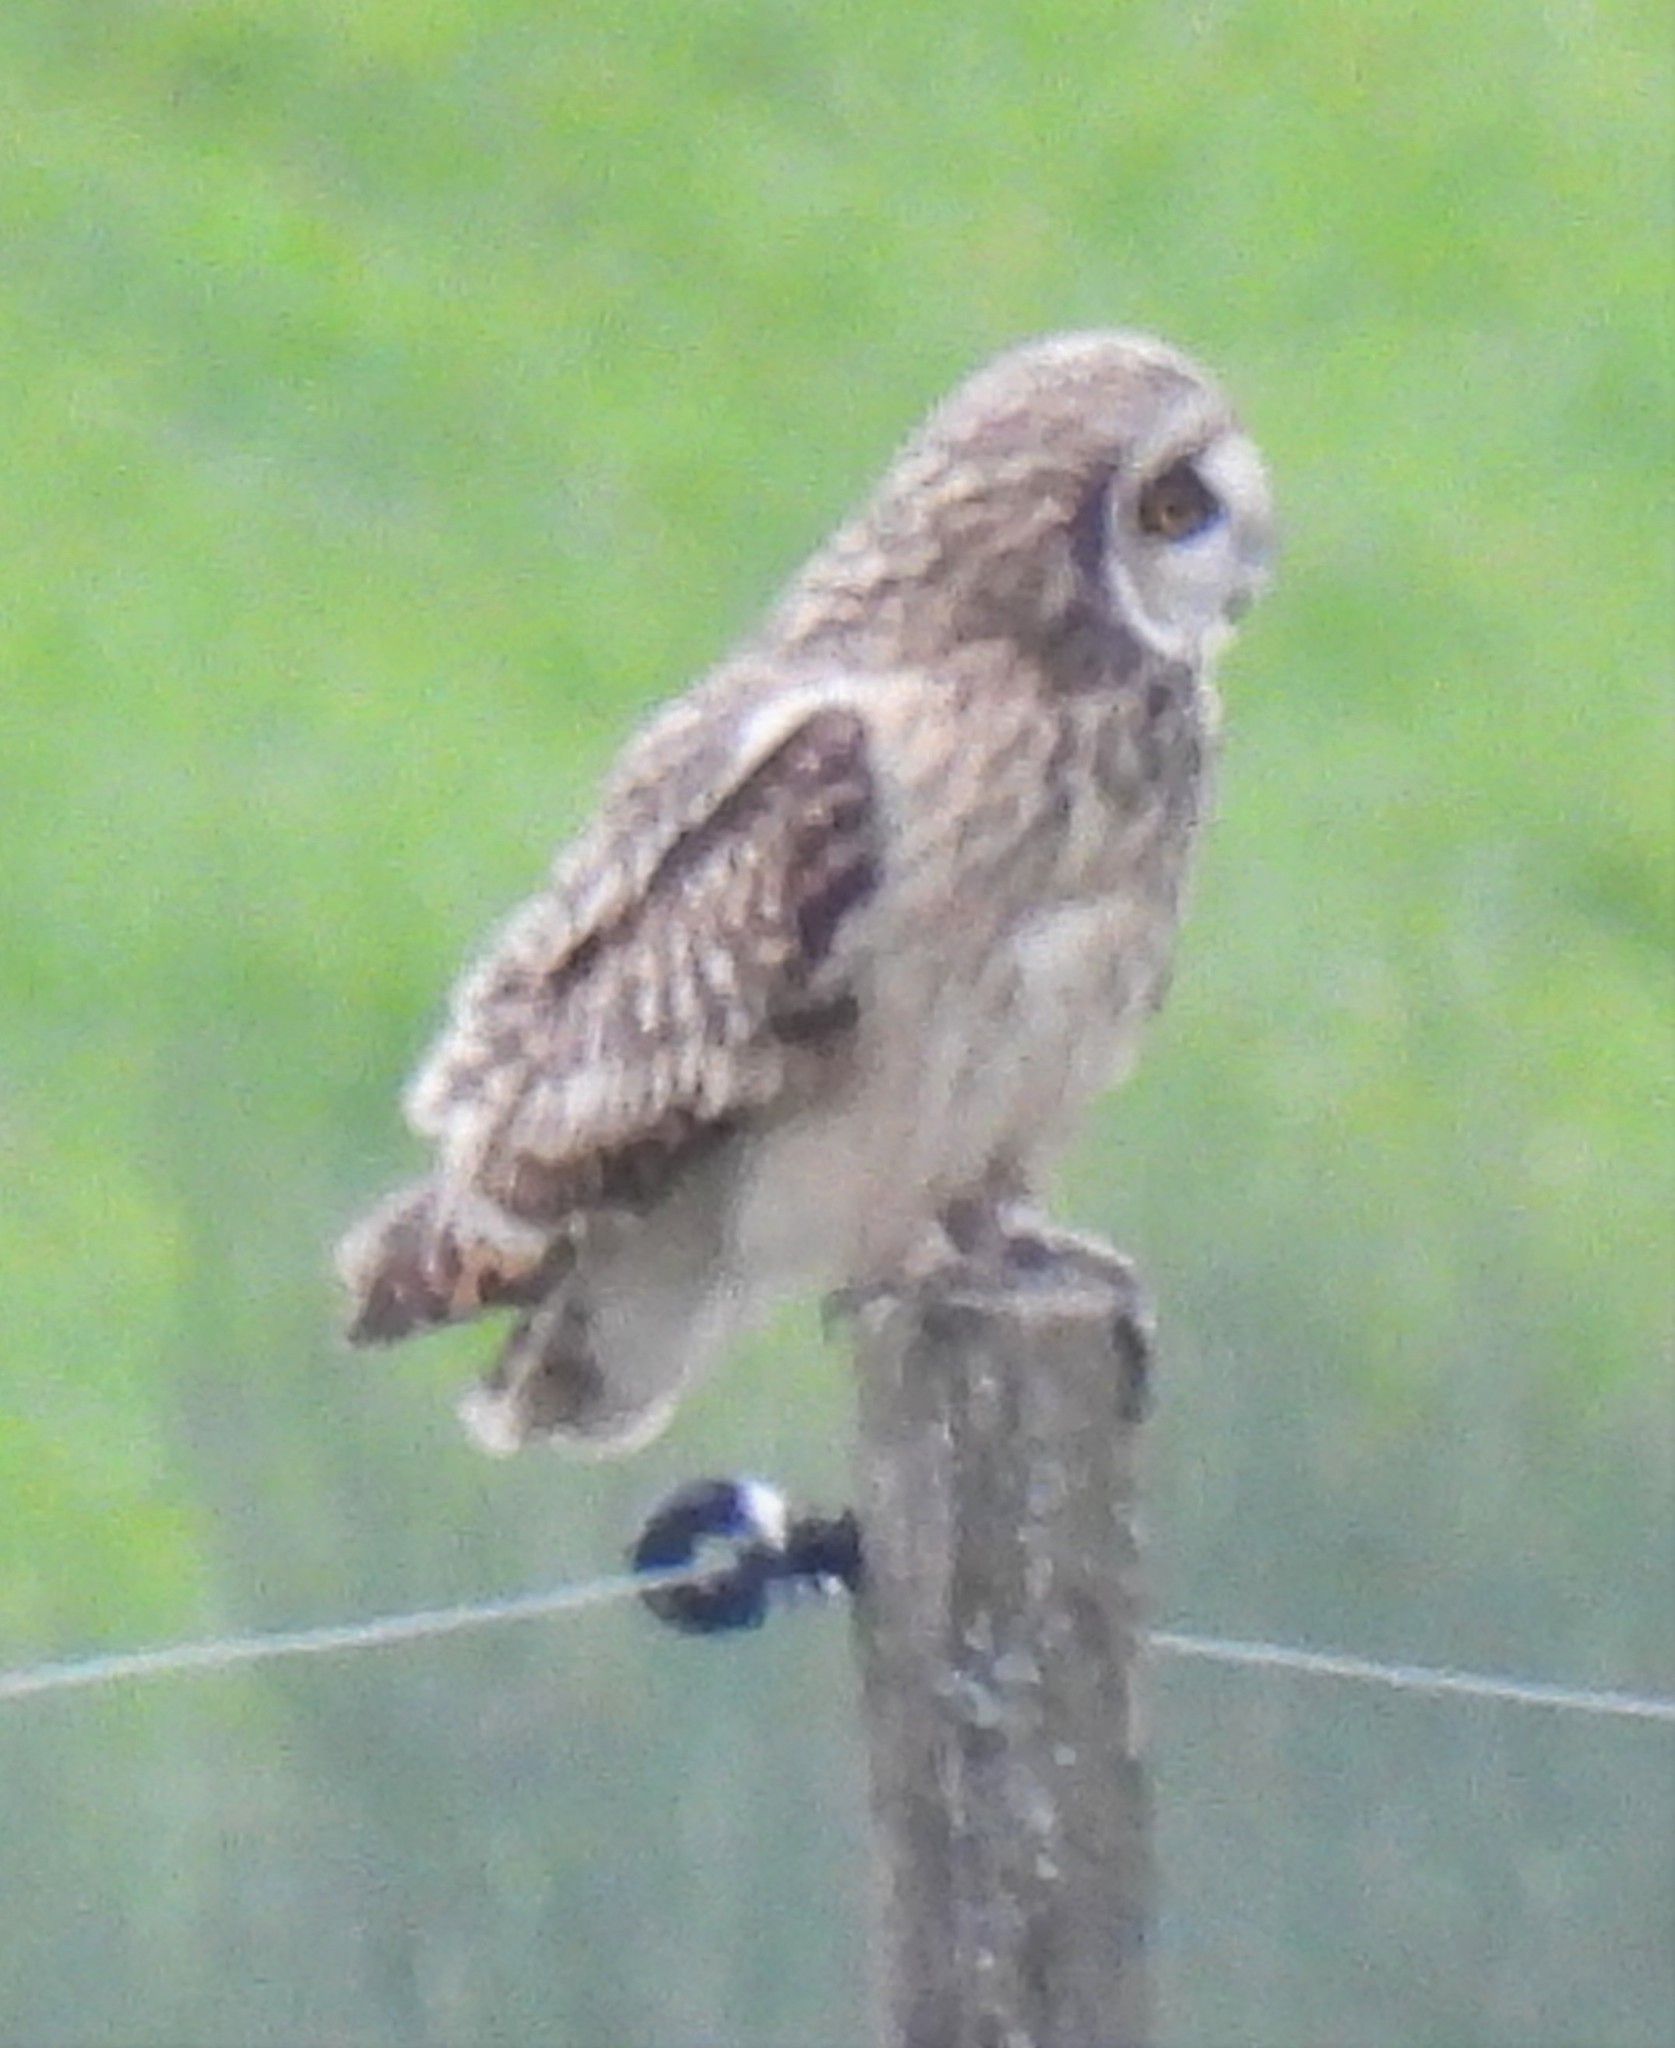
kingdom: Animalia
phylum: Chordata
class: Aves
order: Strigiformes
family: Strigidae
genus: Asio
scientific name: Asio flammeus
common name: Short-eared owl
